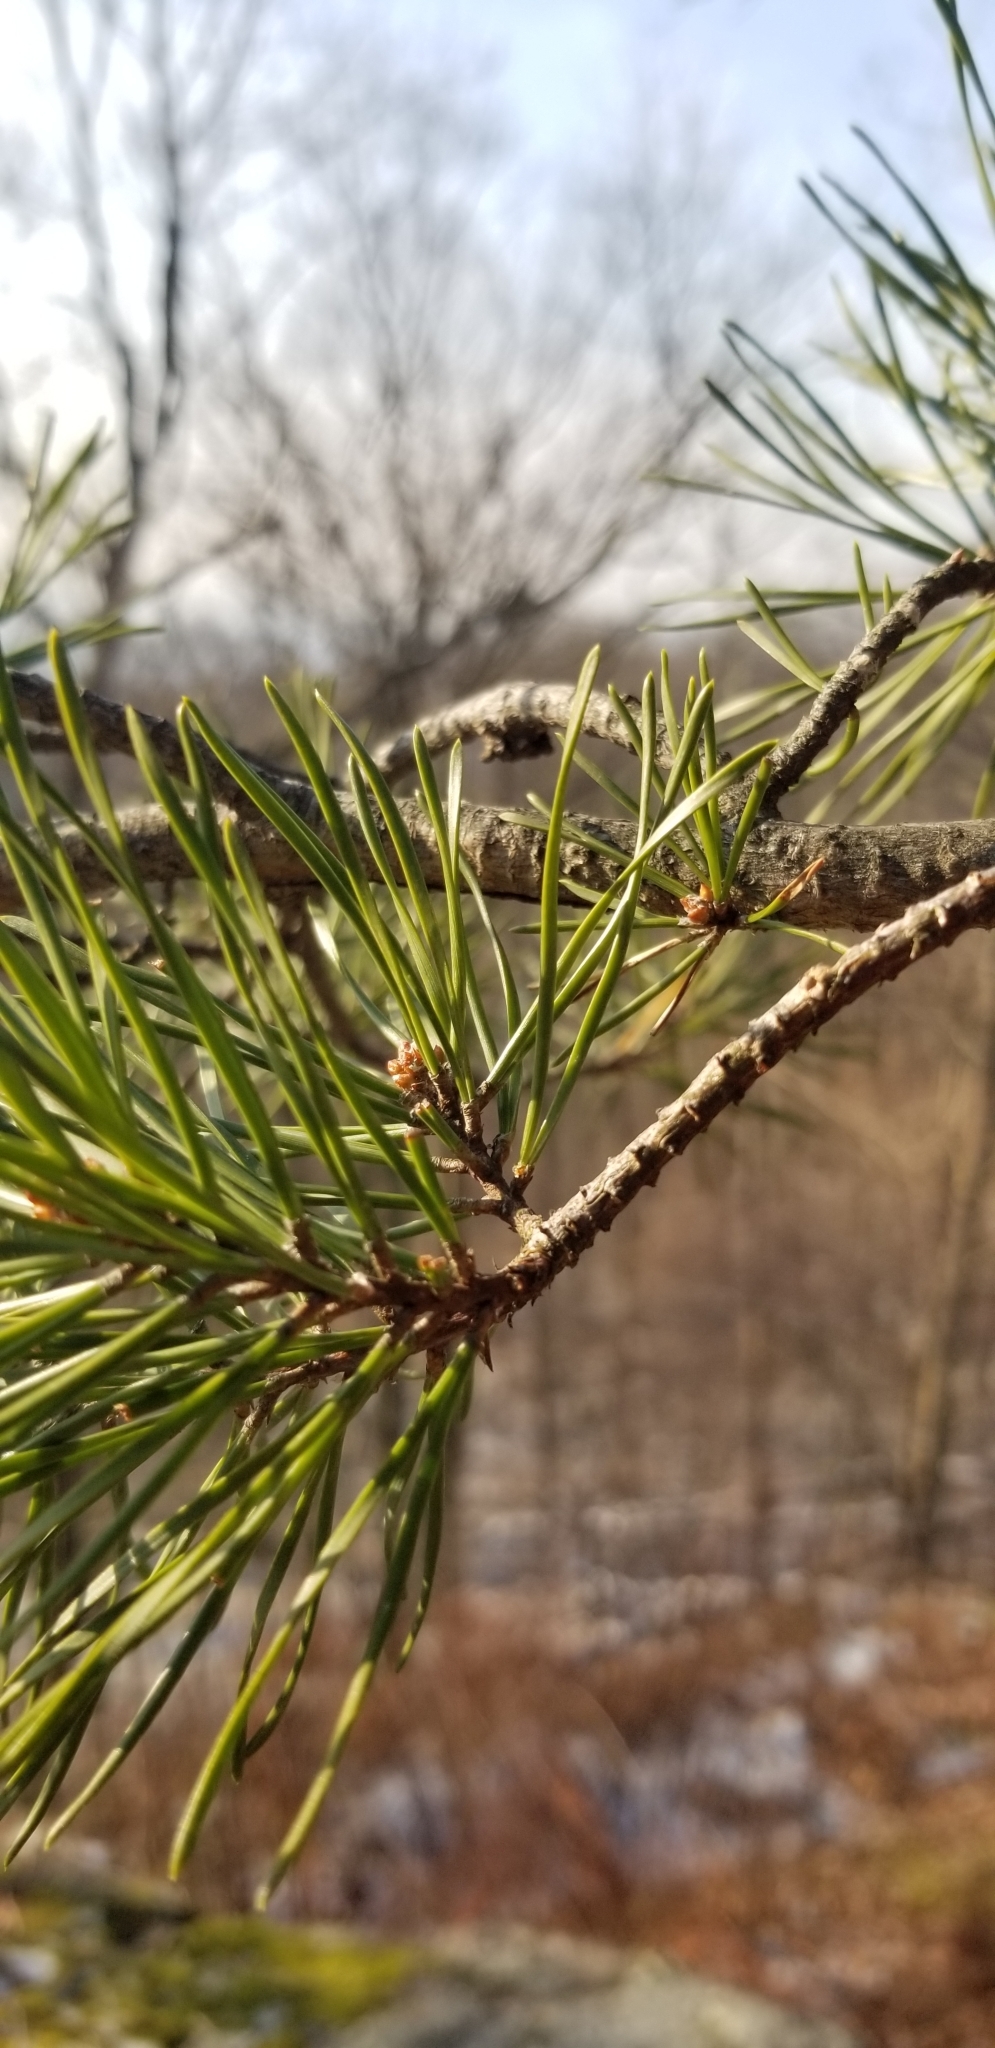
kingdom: Plantae
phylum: Tracheophyta
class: Pinopsida
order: Pinales
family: Pinaceae
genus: Pinus
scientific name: Pinus virginiana
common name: Scrub pine
